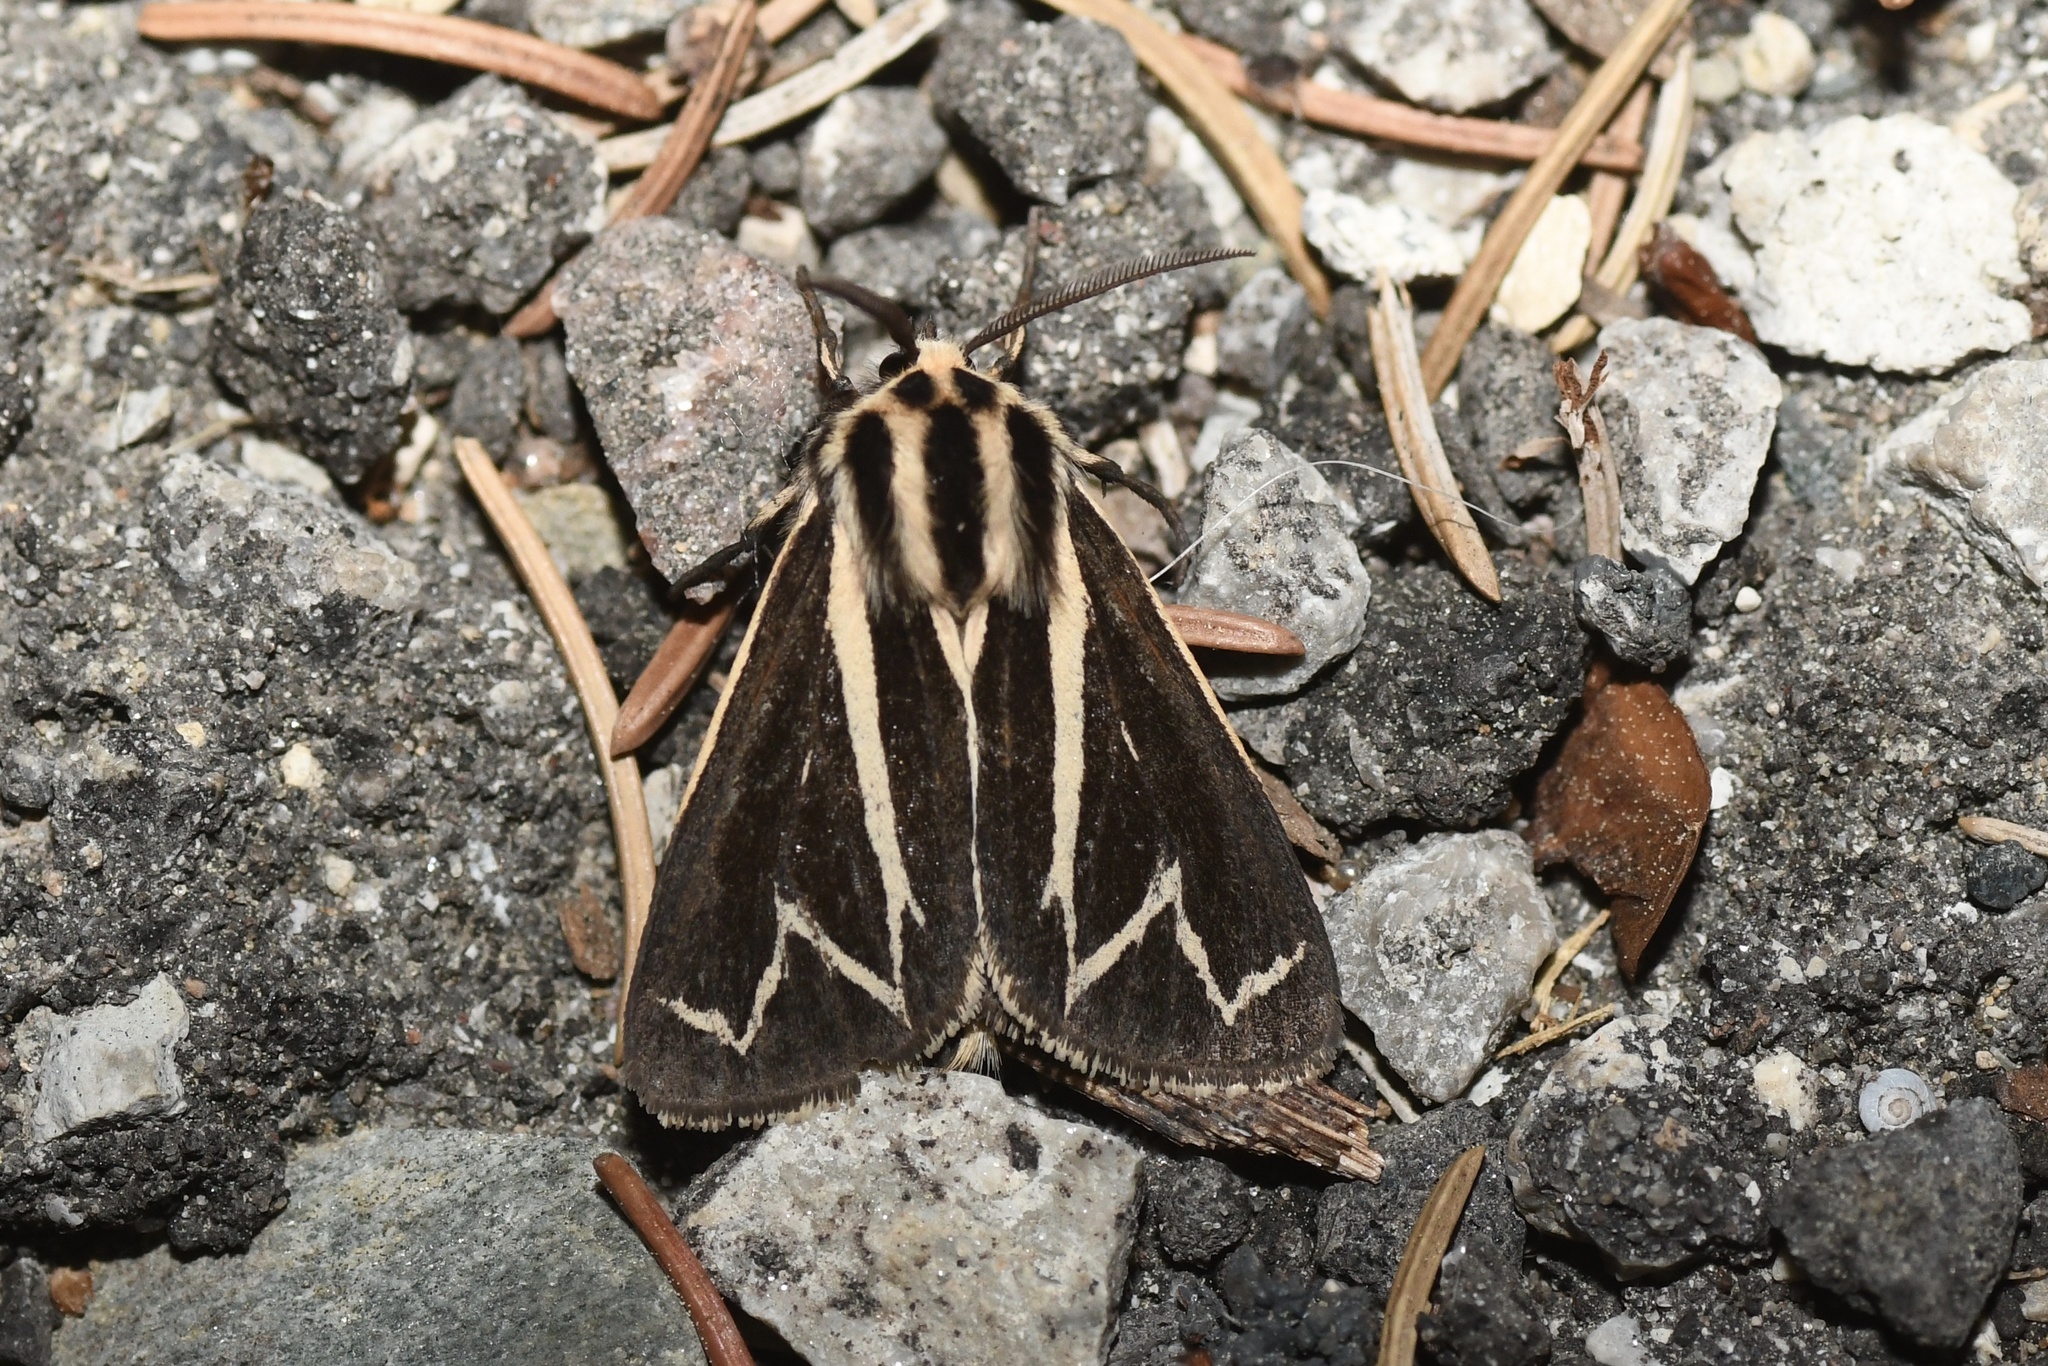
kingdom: Animalia
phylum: Arthropoda
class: Insecta
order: Lepidoptera
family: Erebidae
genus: Apantesis
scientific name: Apantesis
